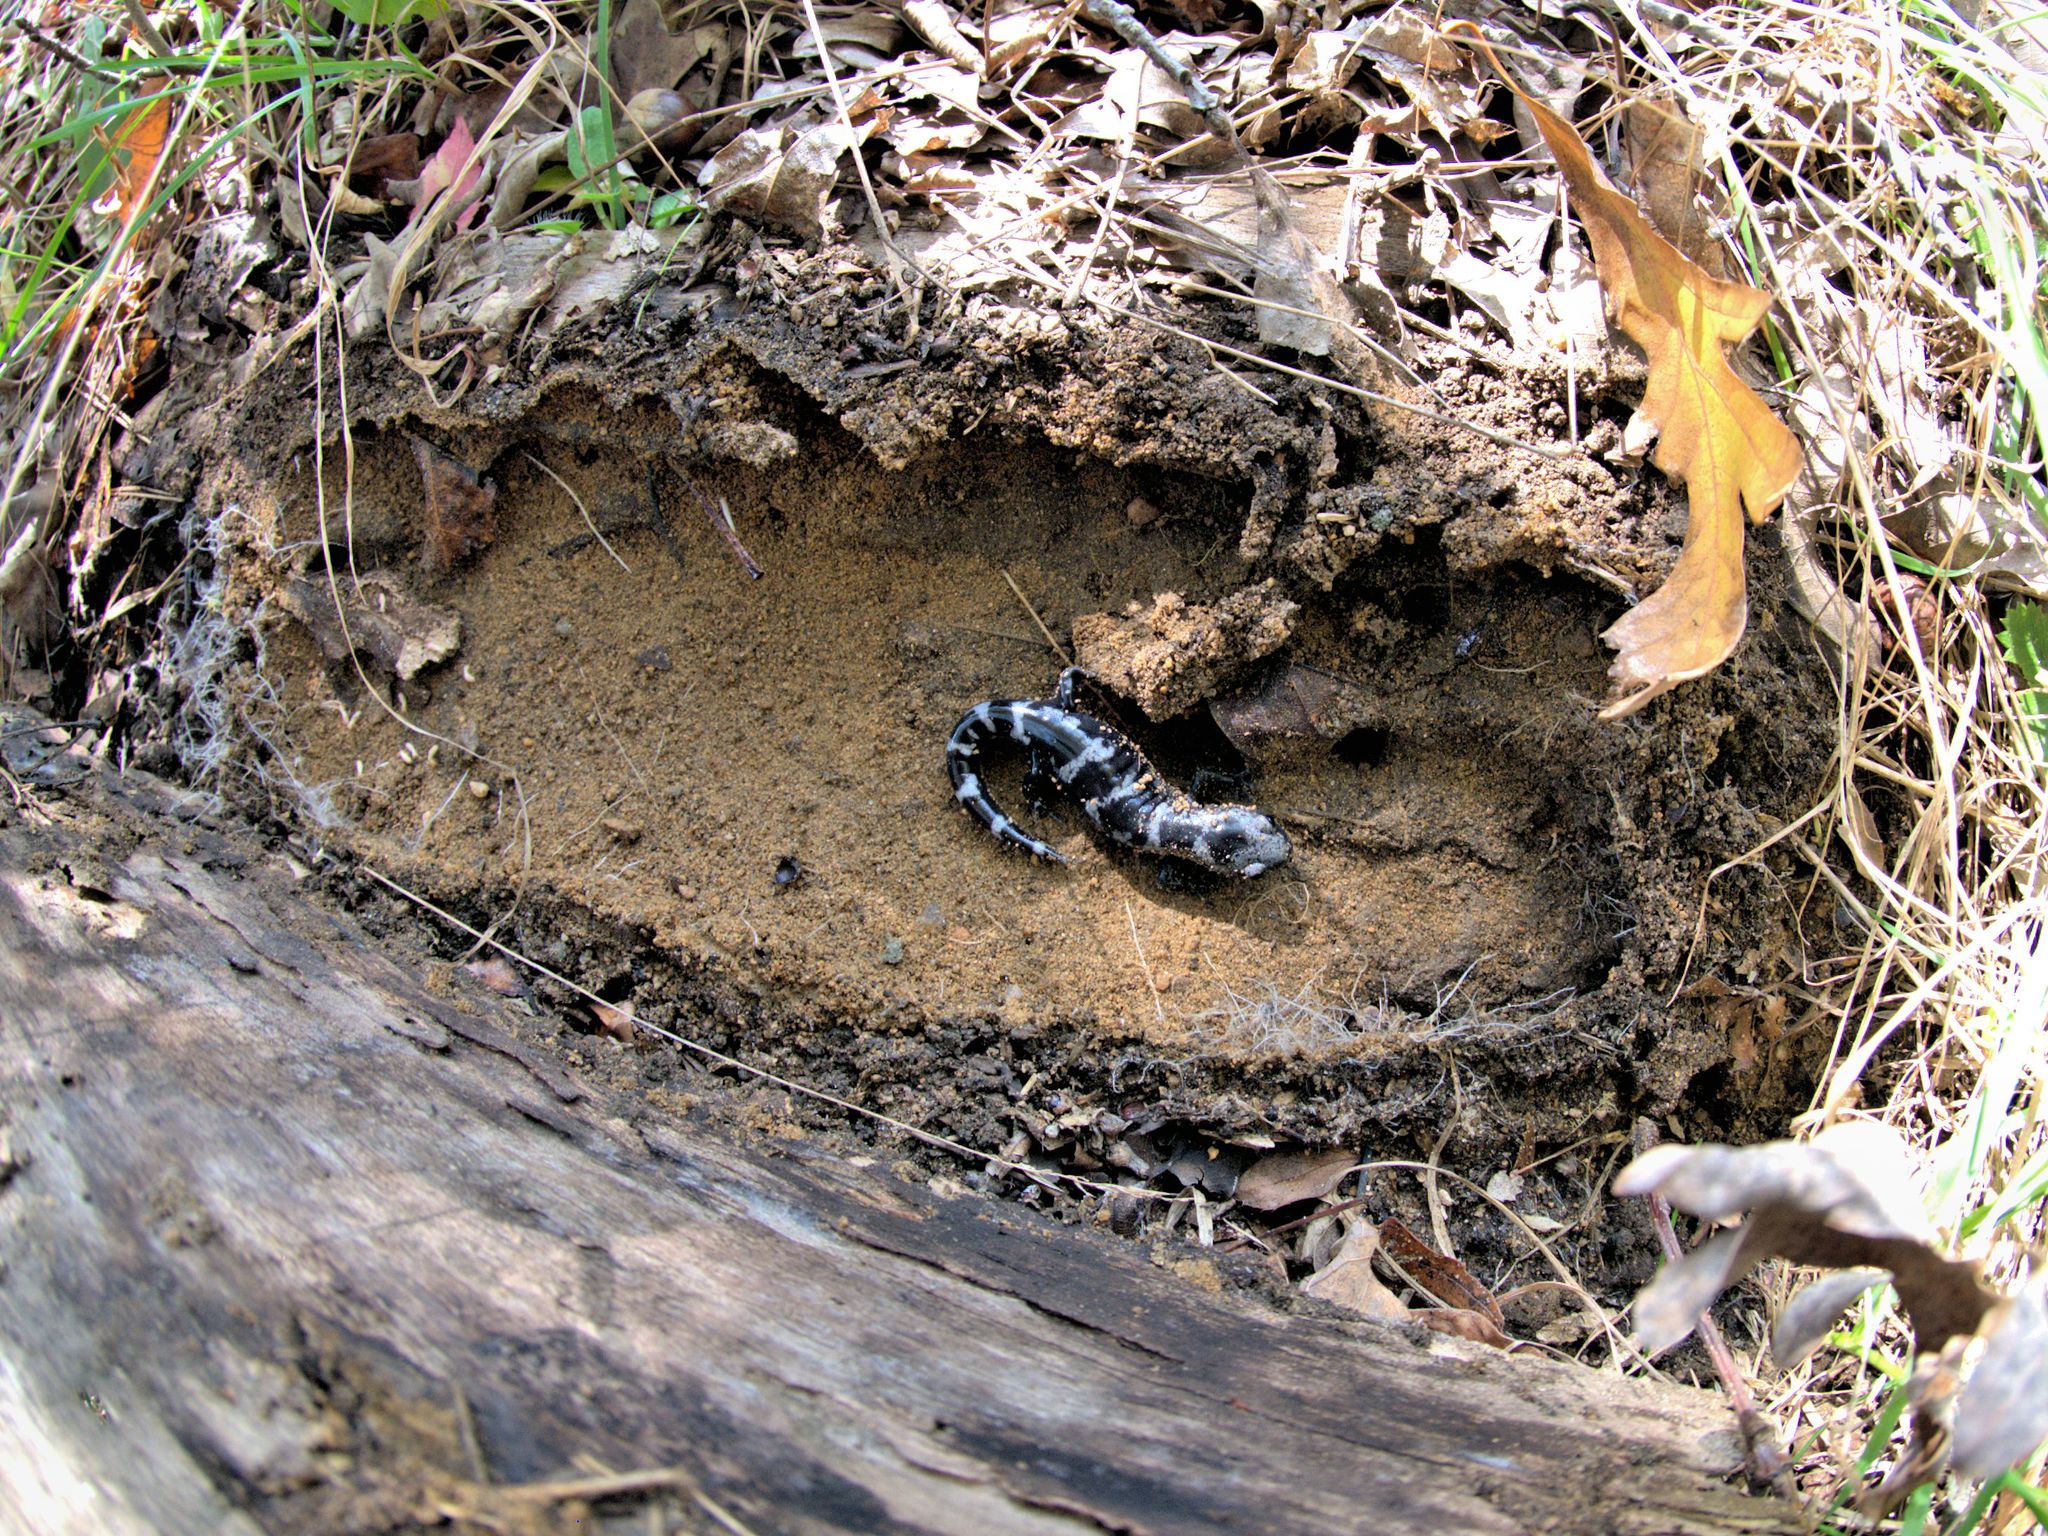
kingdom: Animalia
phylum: Chordata
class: Amphibia
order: Caudata
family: Ambystomatidae
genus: Ambystoma
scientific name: Ambystoma opacum
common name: Marbled salamander
